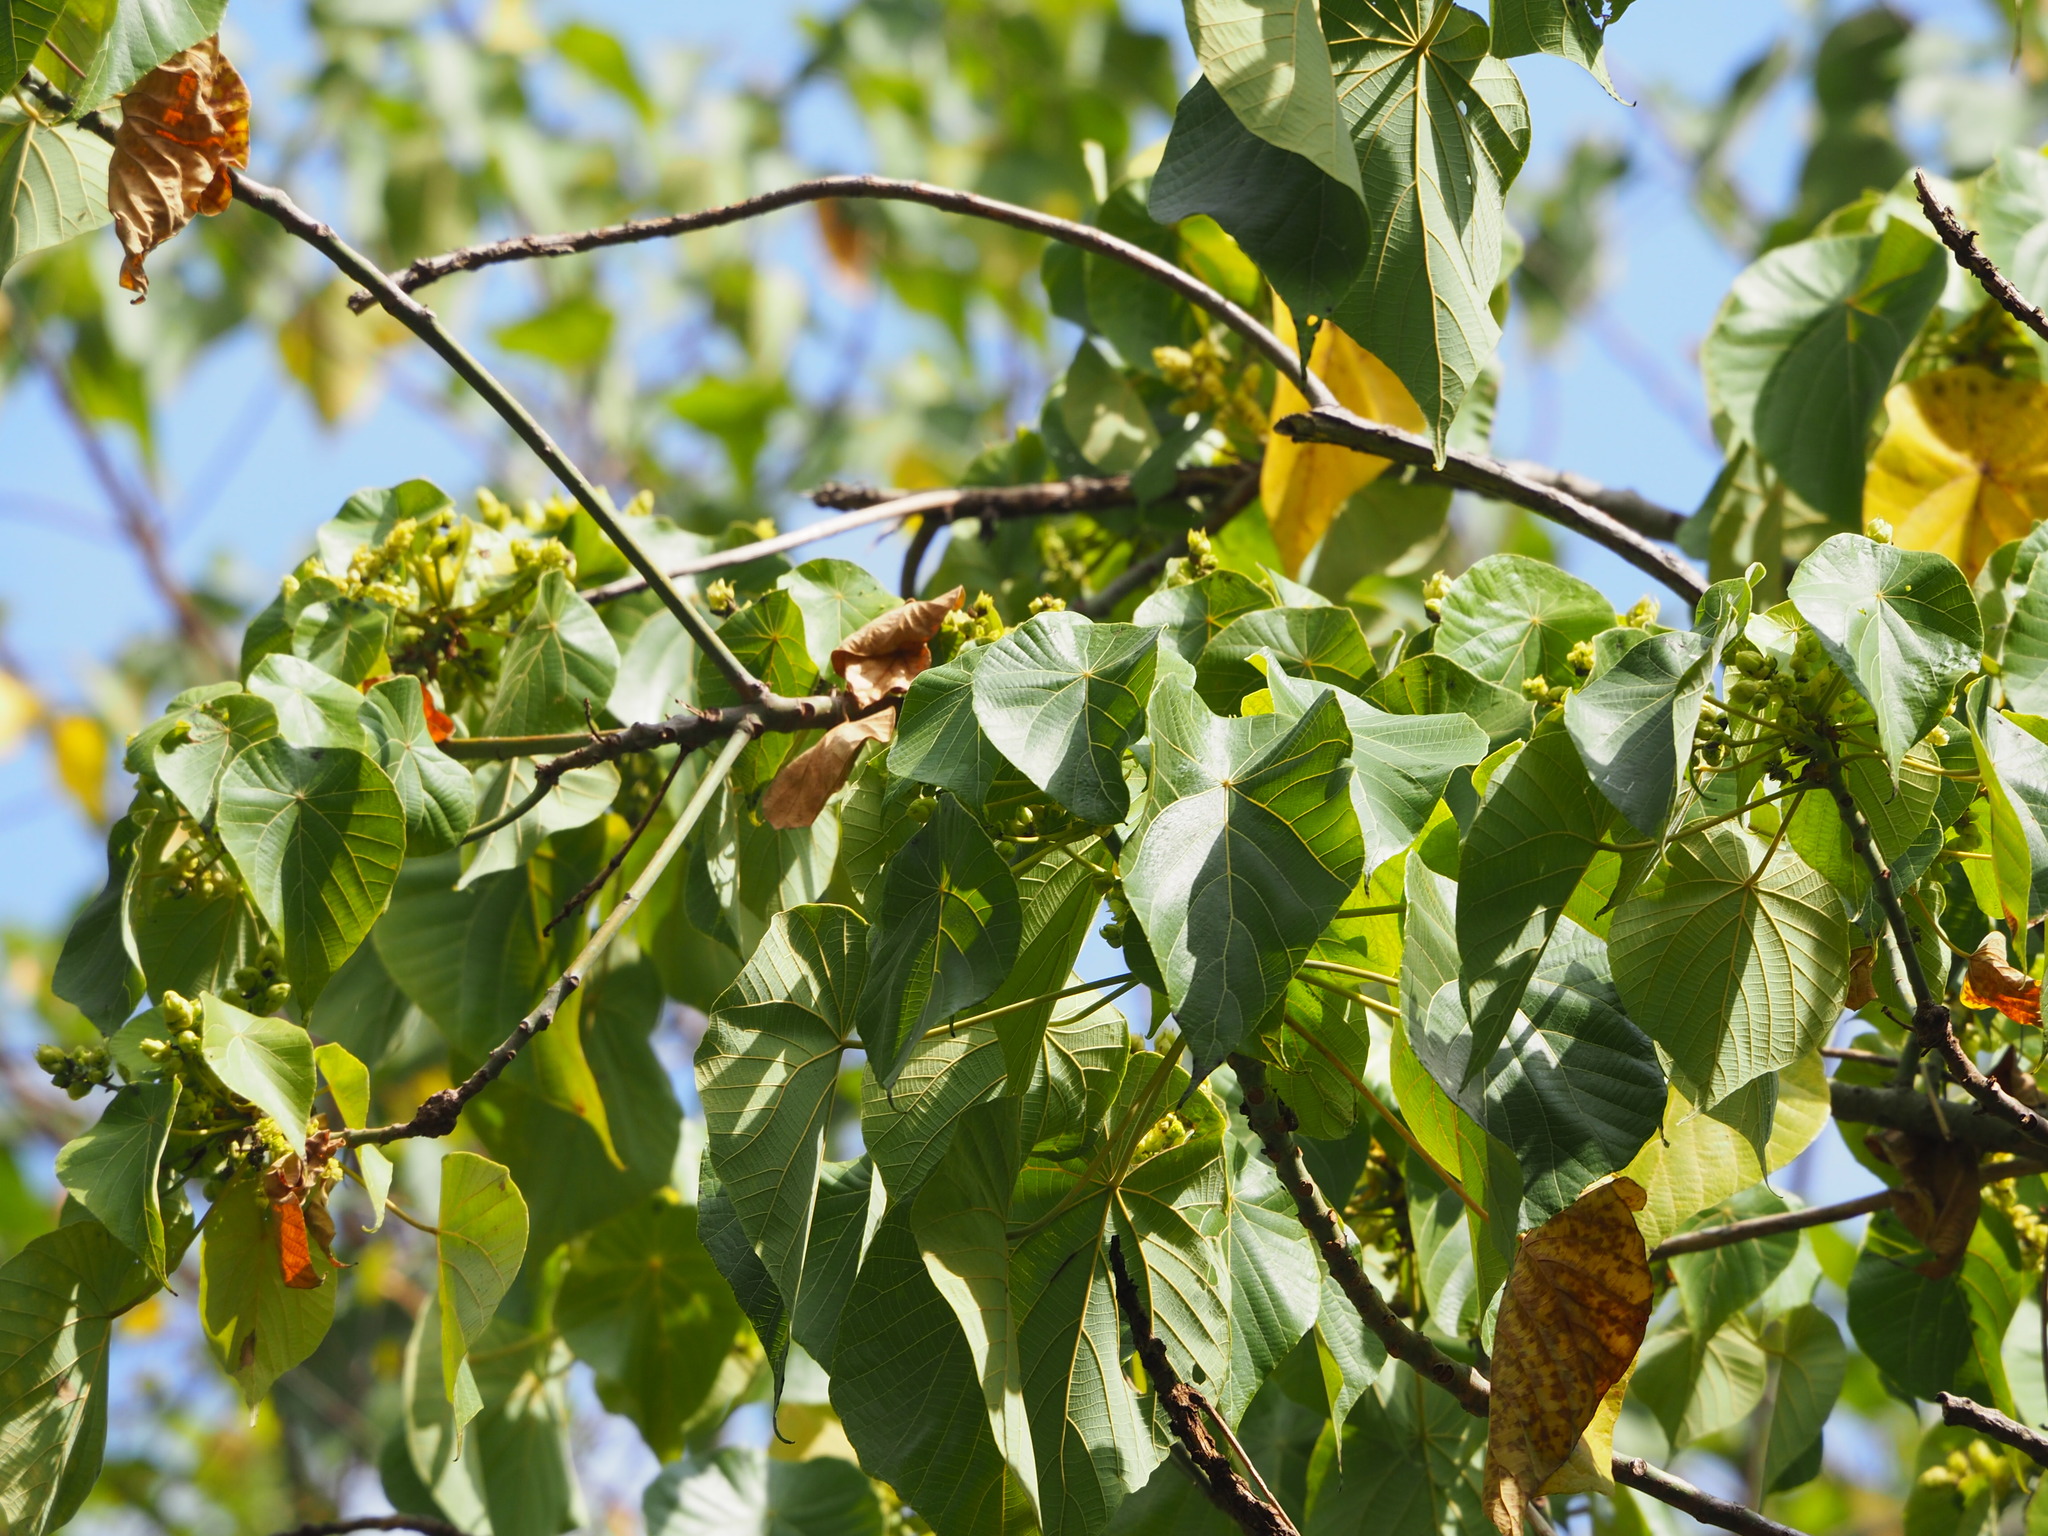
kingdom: Plantae
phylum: Tracheophyta
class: Magnoliopsida
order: Malpighiales
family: Euphorbiaceae
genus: Macaranga
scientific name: Macaranga tanarius
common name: Parasol leaf tree
